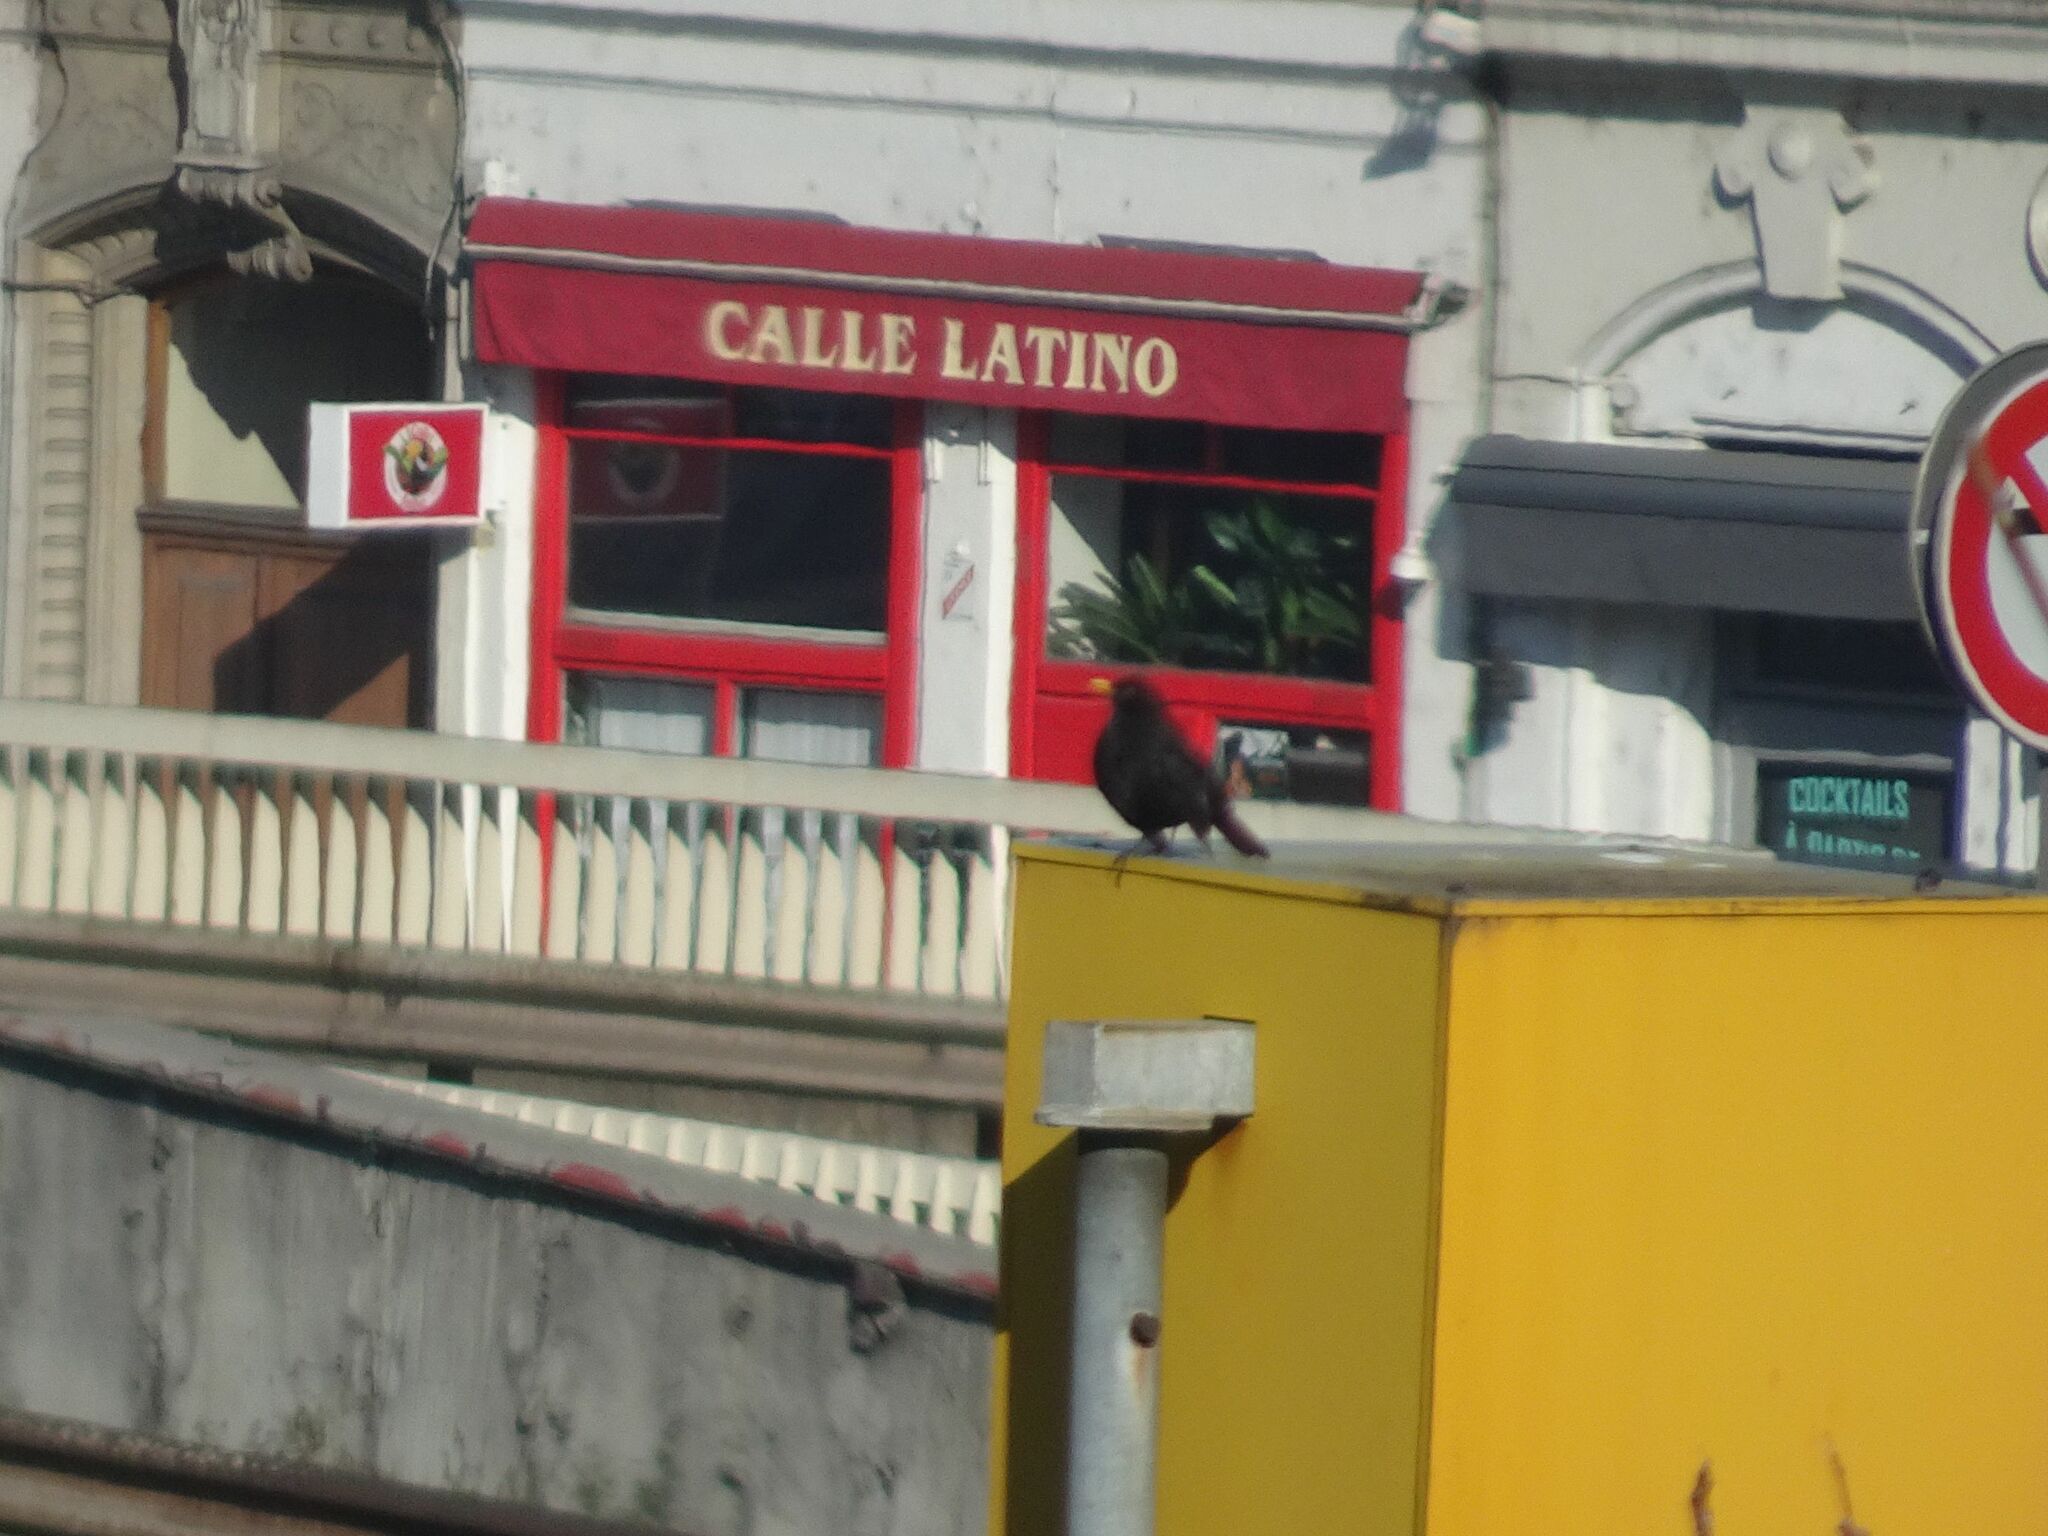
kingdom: Animalia
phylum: Chordata
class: Aves
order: Passeriformes
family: Turdidae
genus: Turdus
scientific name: Turdus merula
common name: Common blackbird
